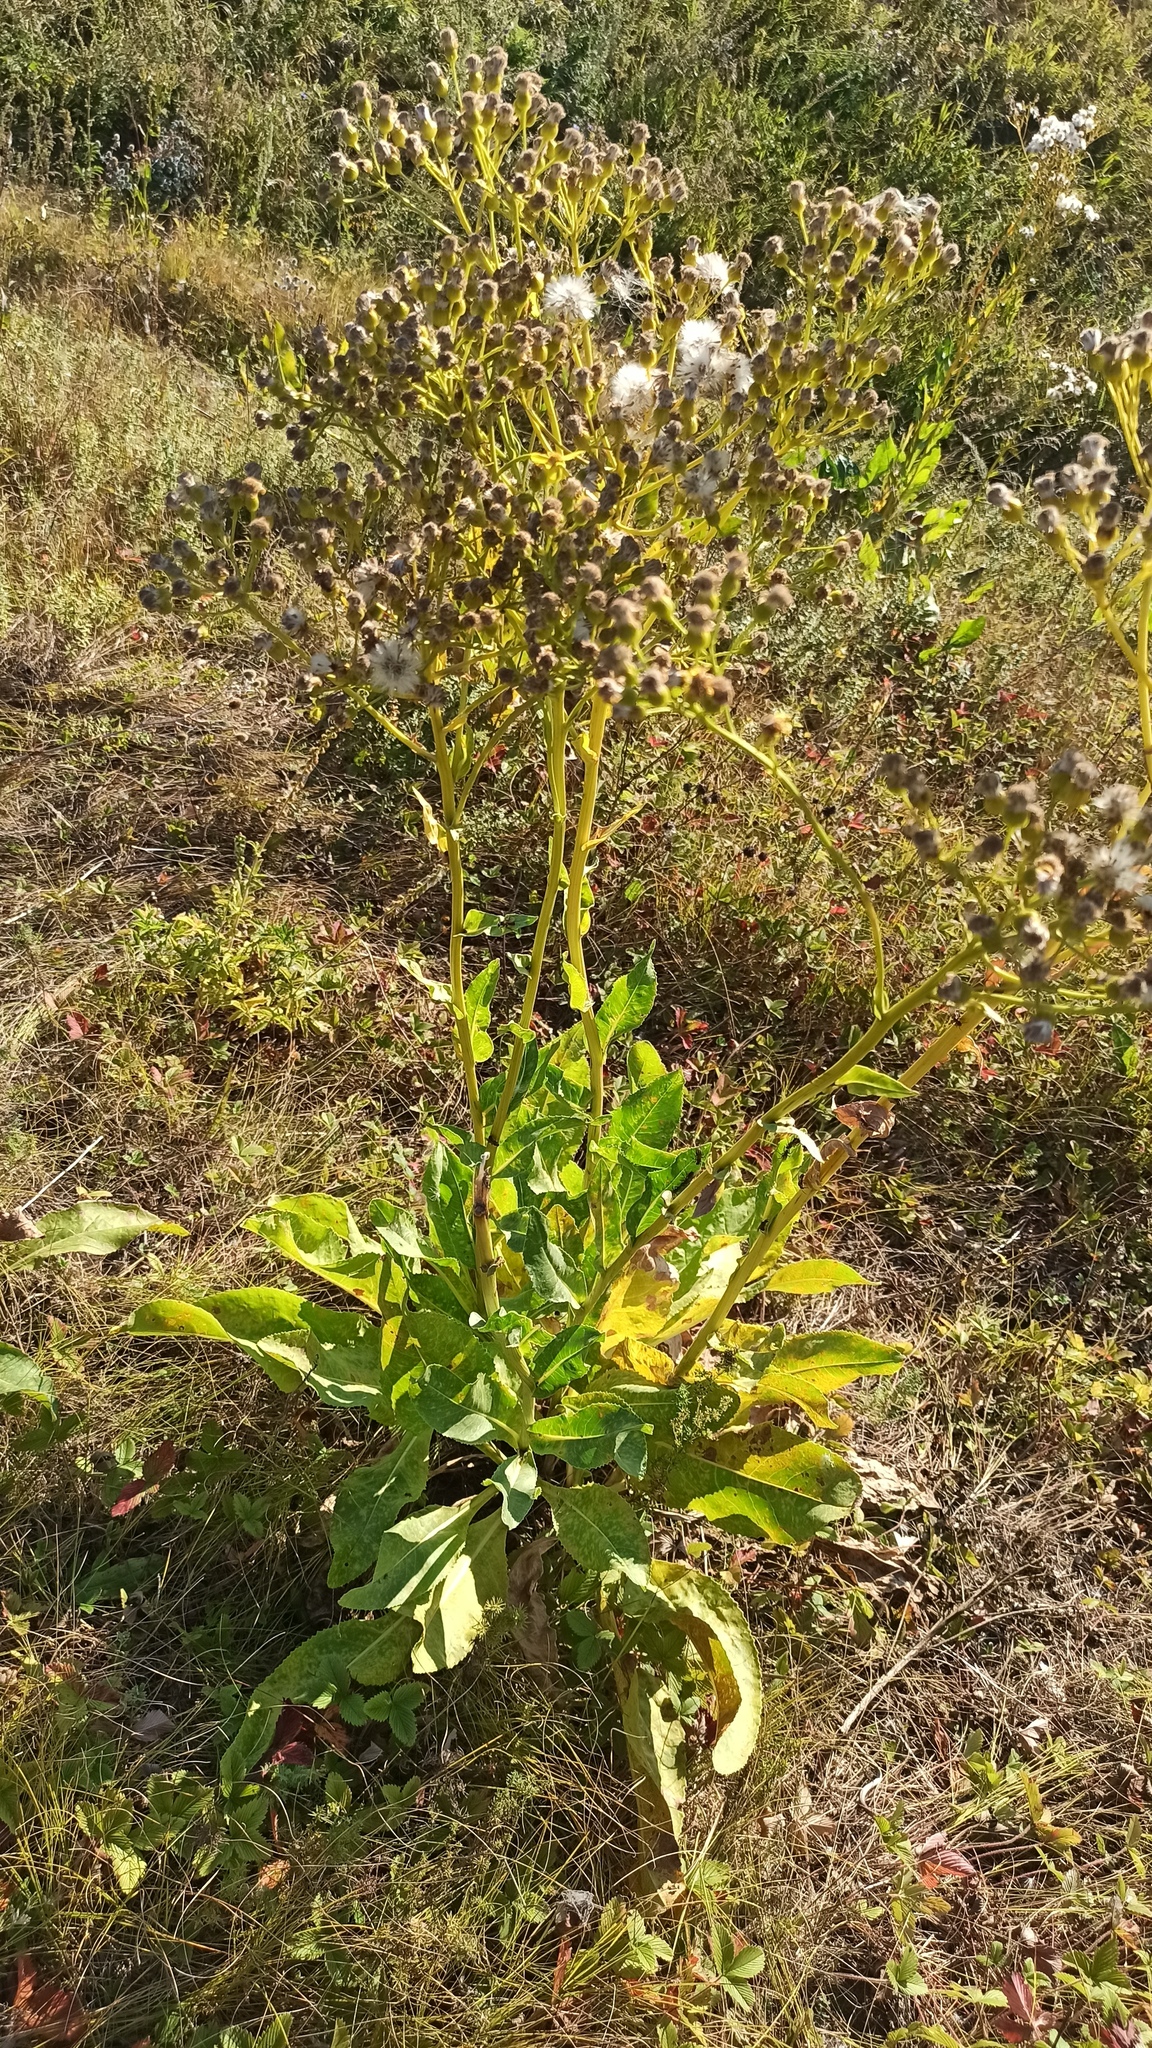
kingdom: Plantae
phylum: Tracheophyta
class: Magnoliopsida
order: Asterales
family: Asteraceae
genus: Senecio
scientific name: Senecio doria
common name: Golden ragwort
